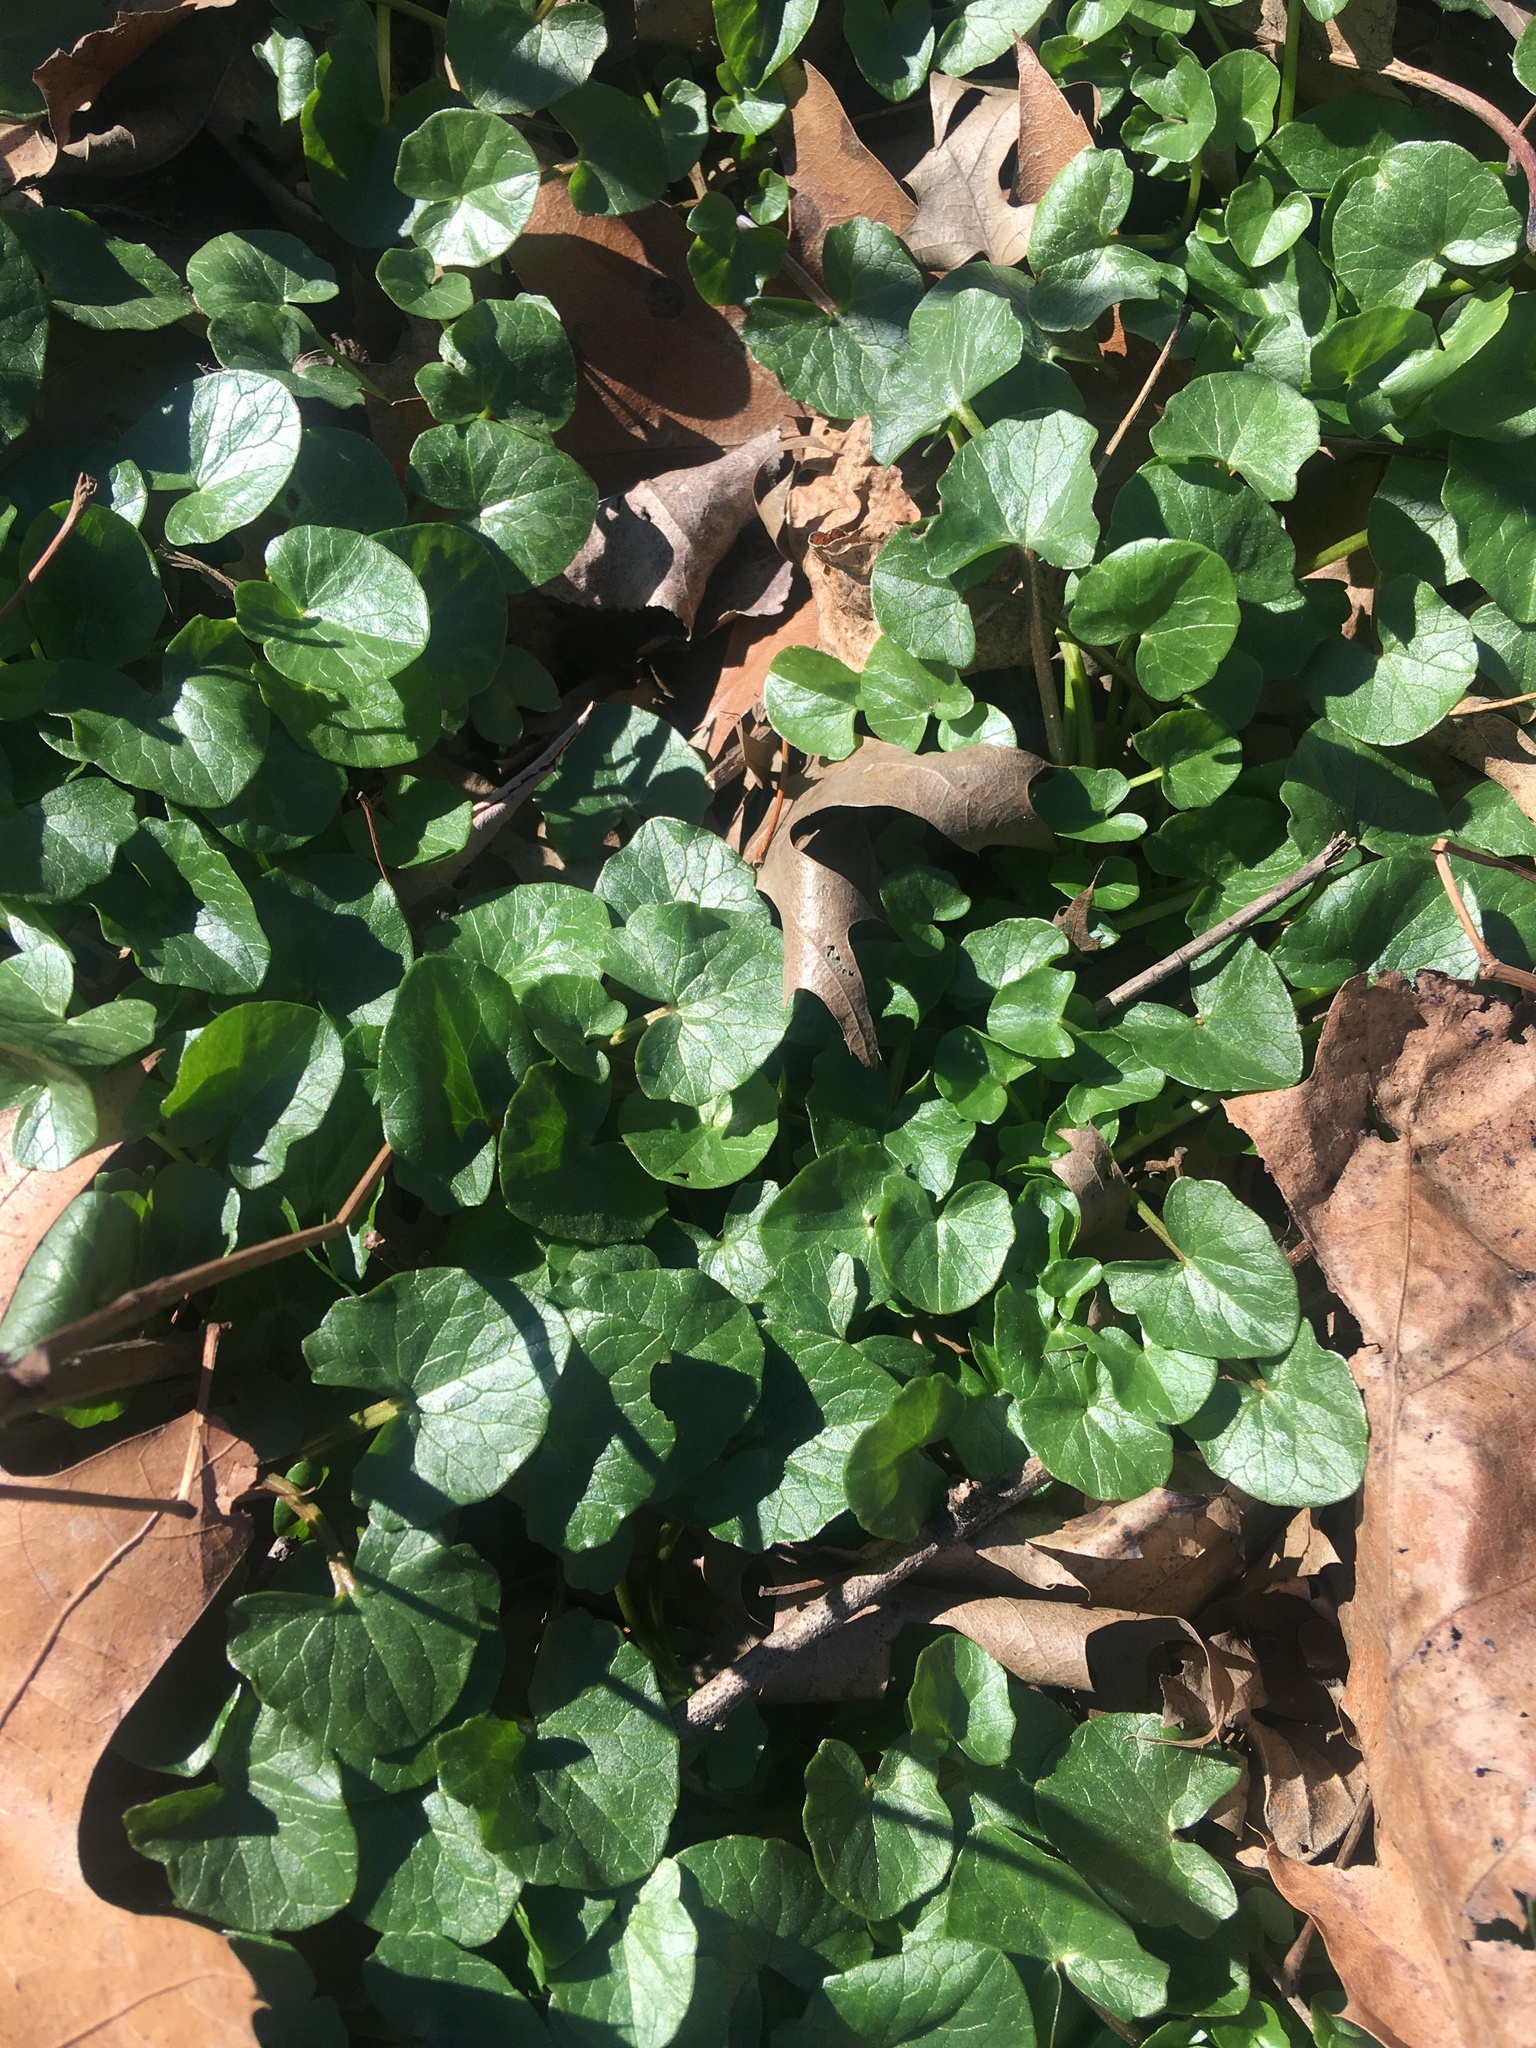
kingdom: Plantae
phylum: Tracheophyta
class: Magnoliopsida
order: Ranunculales
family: Ranunculaceae
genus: Ficaria
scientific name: Ficaria verna
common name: Lesser celandine
